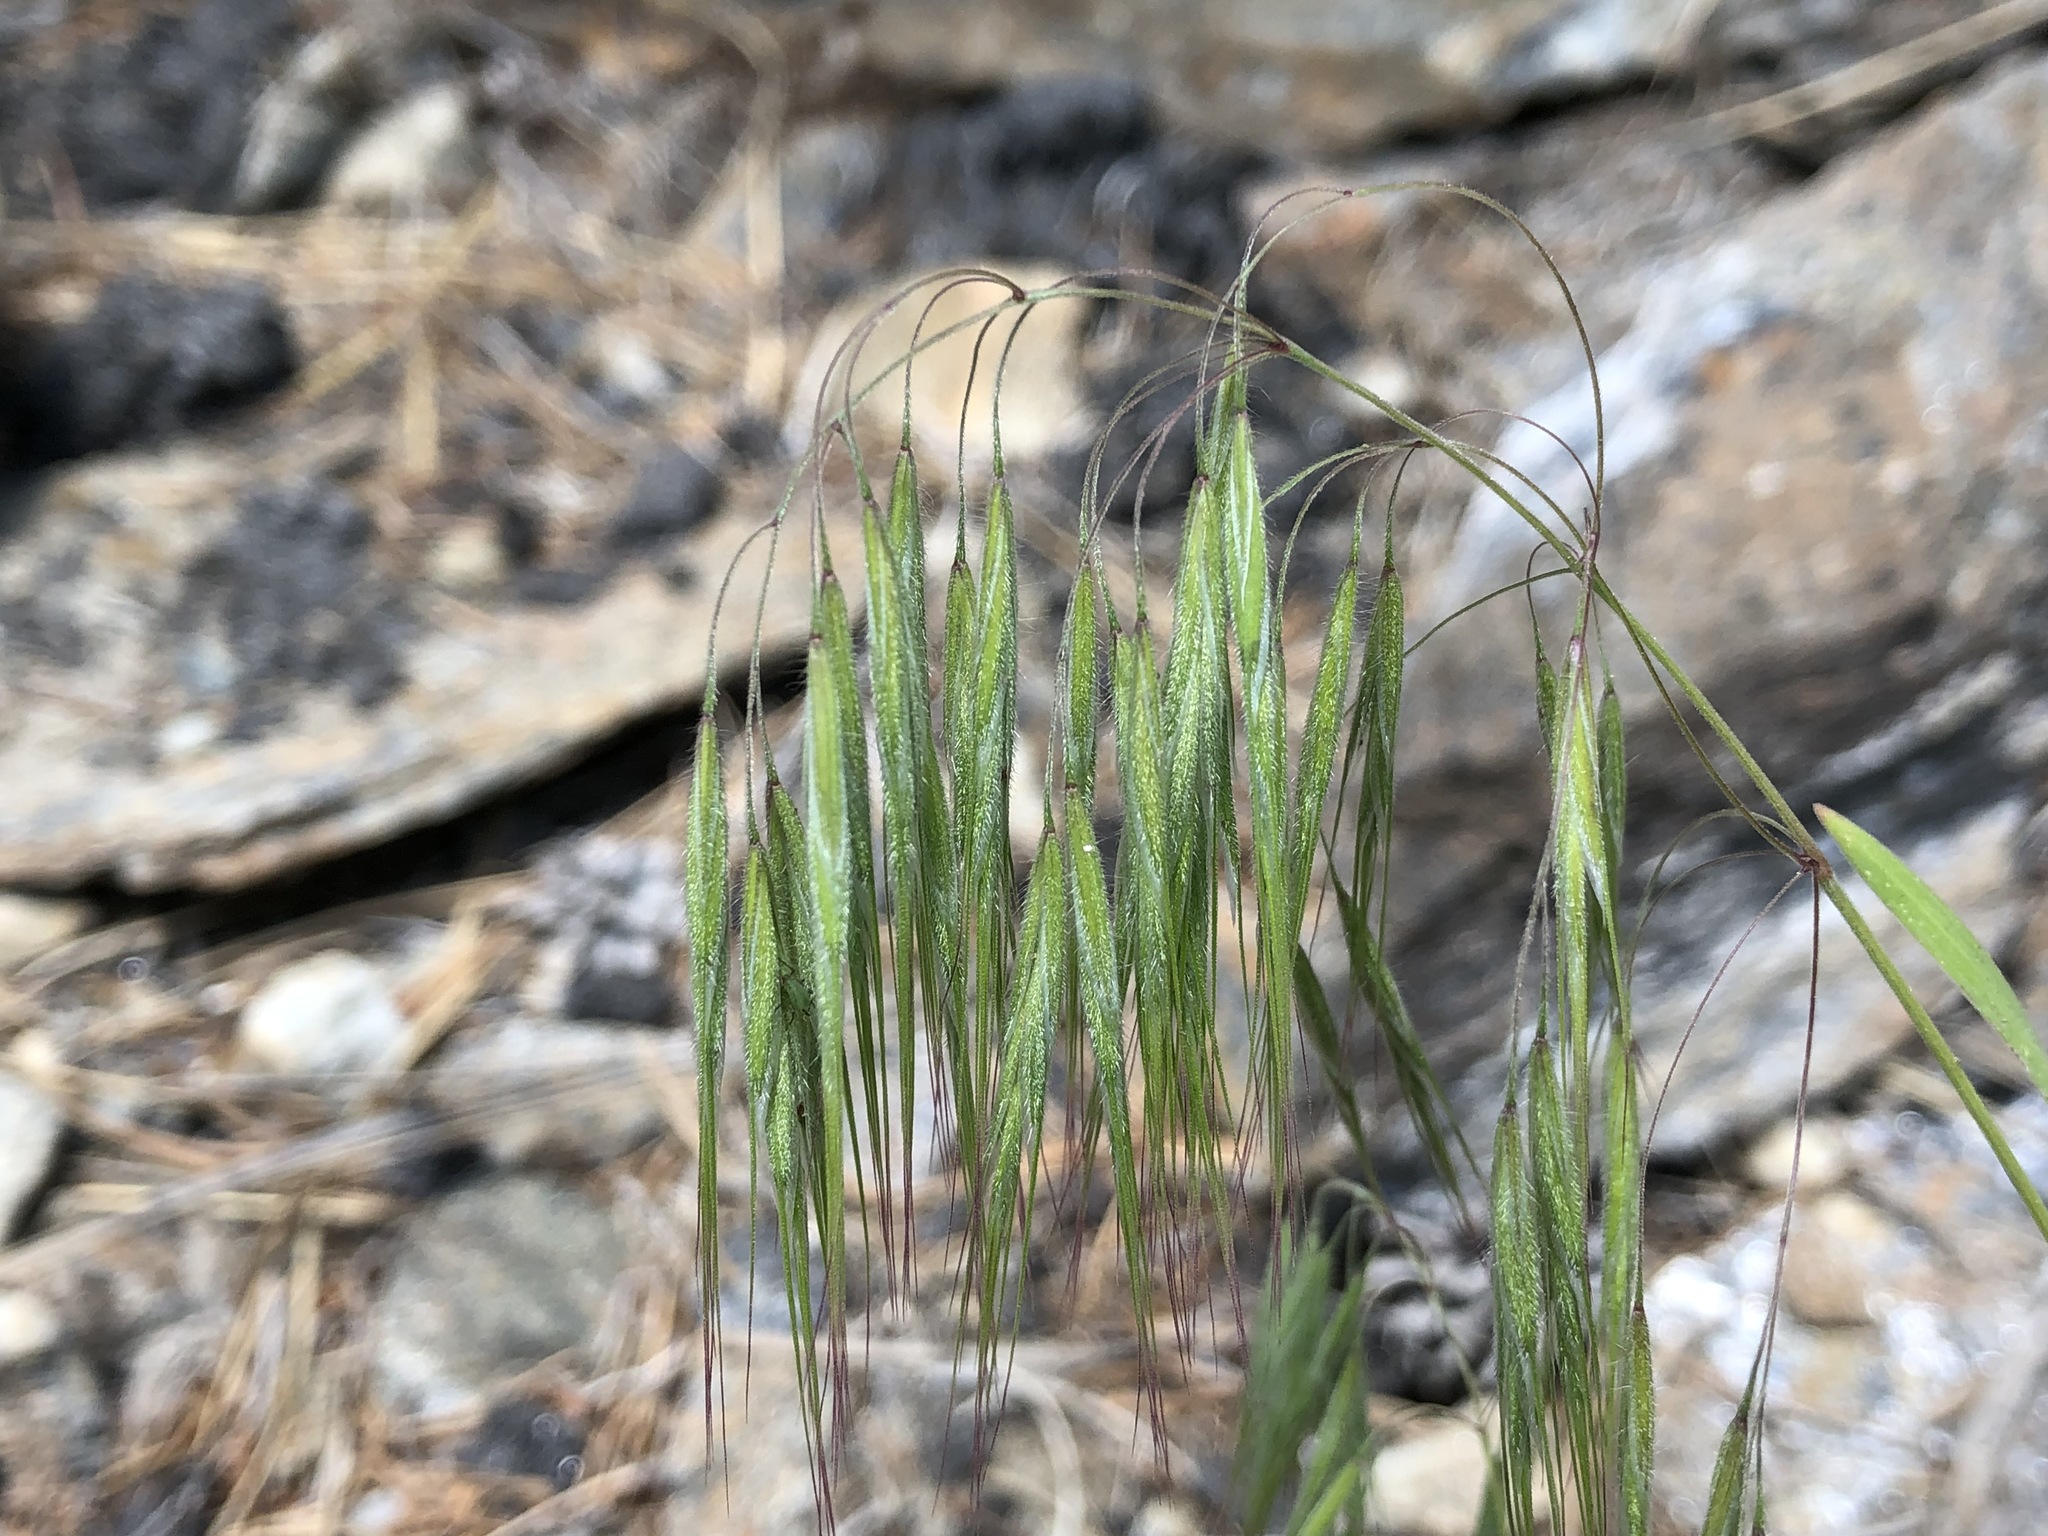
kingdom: Plantae
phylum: Tracheophyta
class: Liliopsida
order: Poales
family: Poaceae
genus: Bromus
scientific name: Bromus tectorum
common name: Cheatgrass
